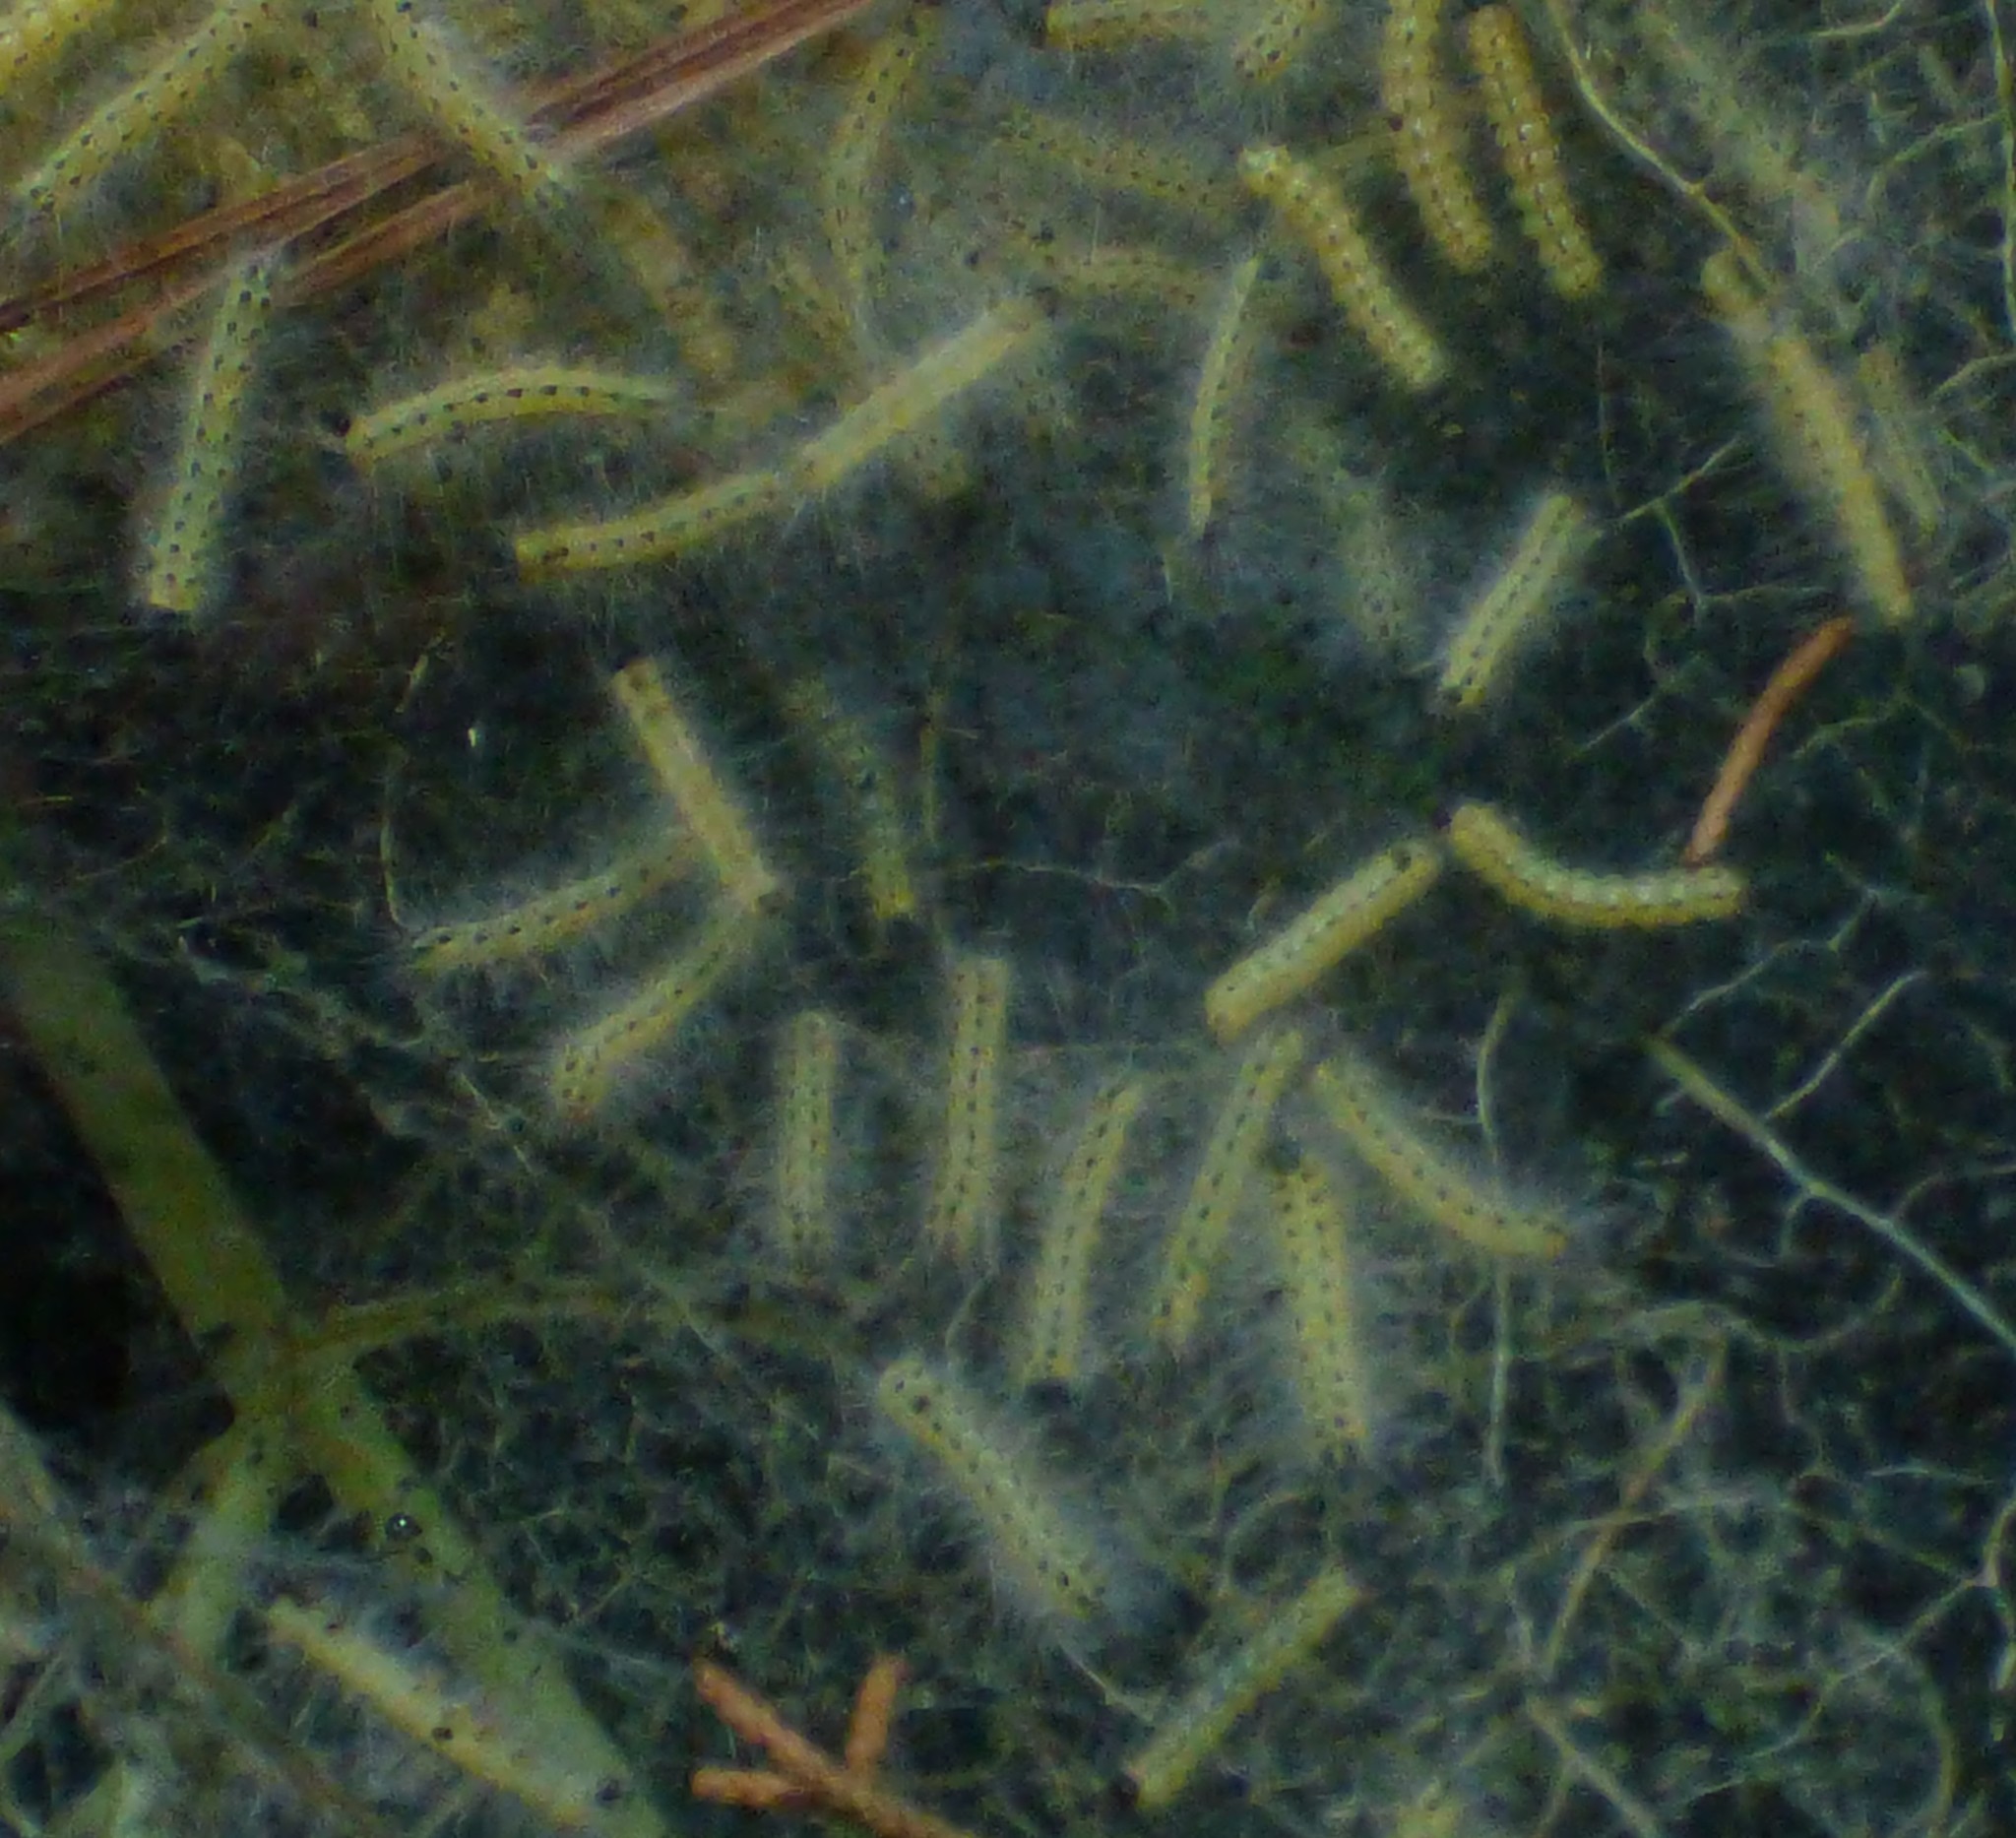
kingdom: Animalia
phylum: Arthropoda
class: Insecta
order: Lepidoptera
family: Erebidae
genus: Hyphantria
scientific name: Hyphantria cunea
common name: American white moth
